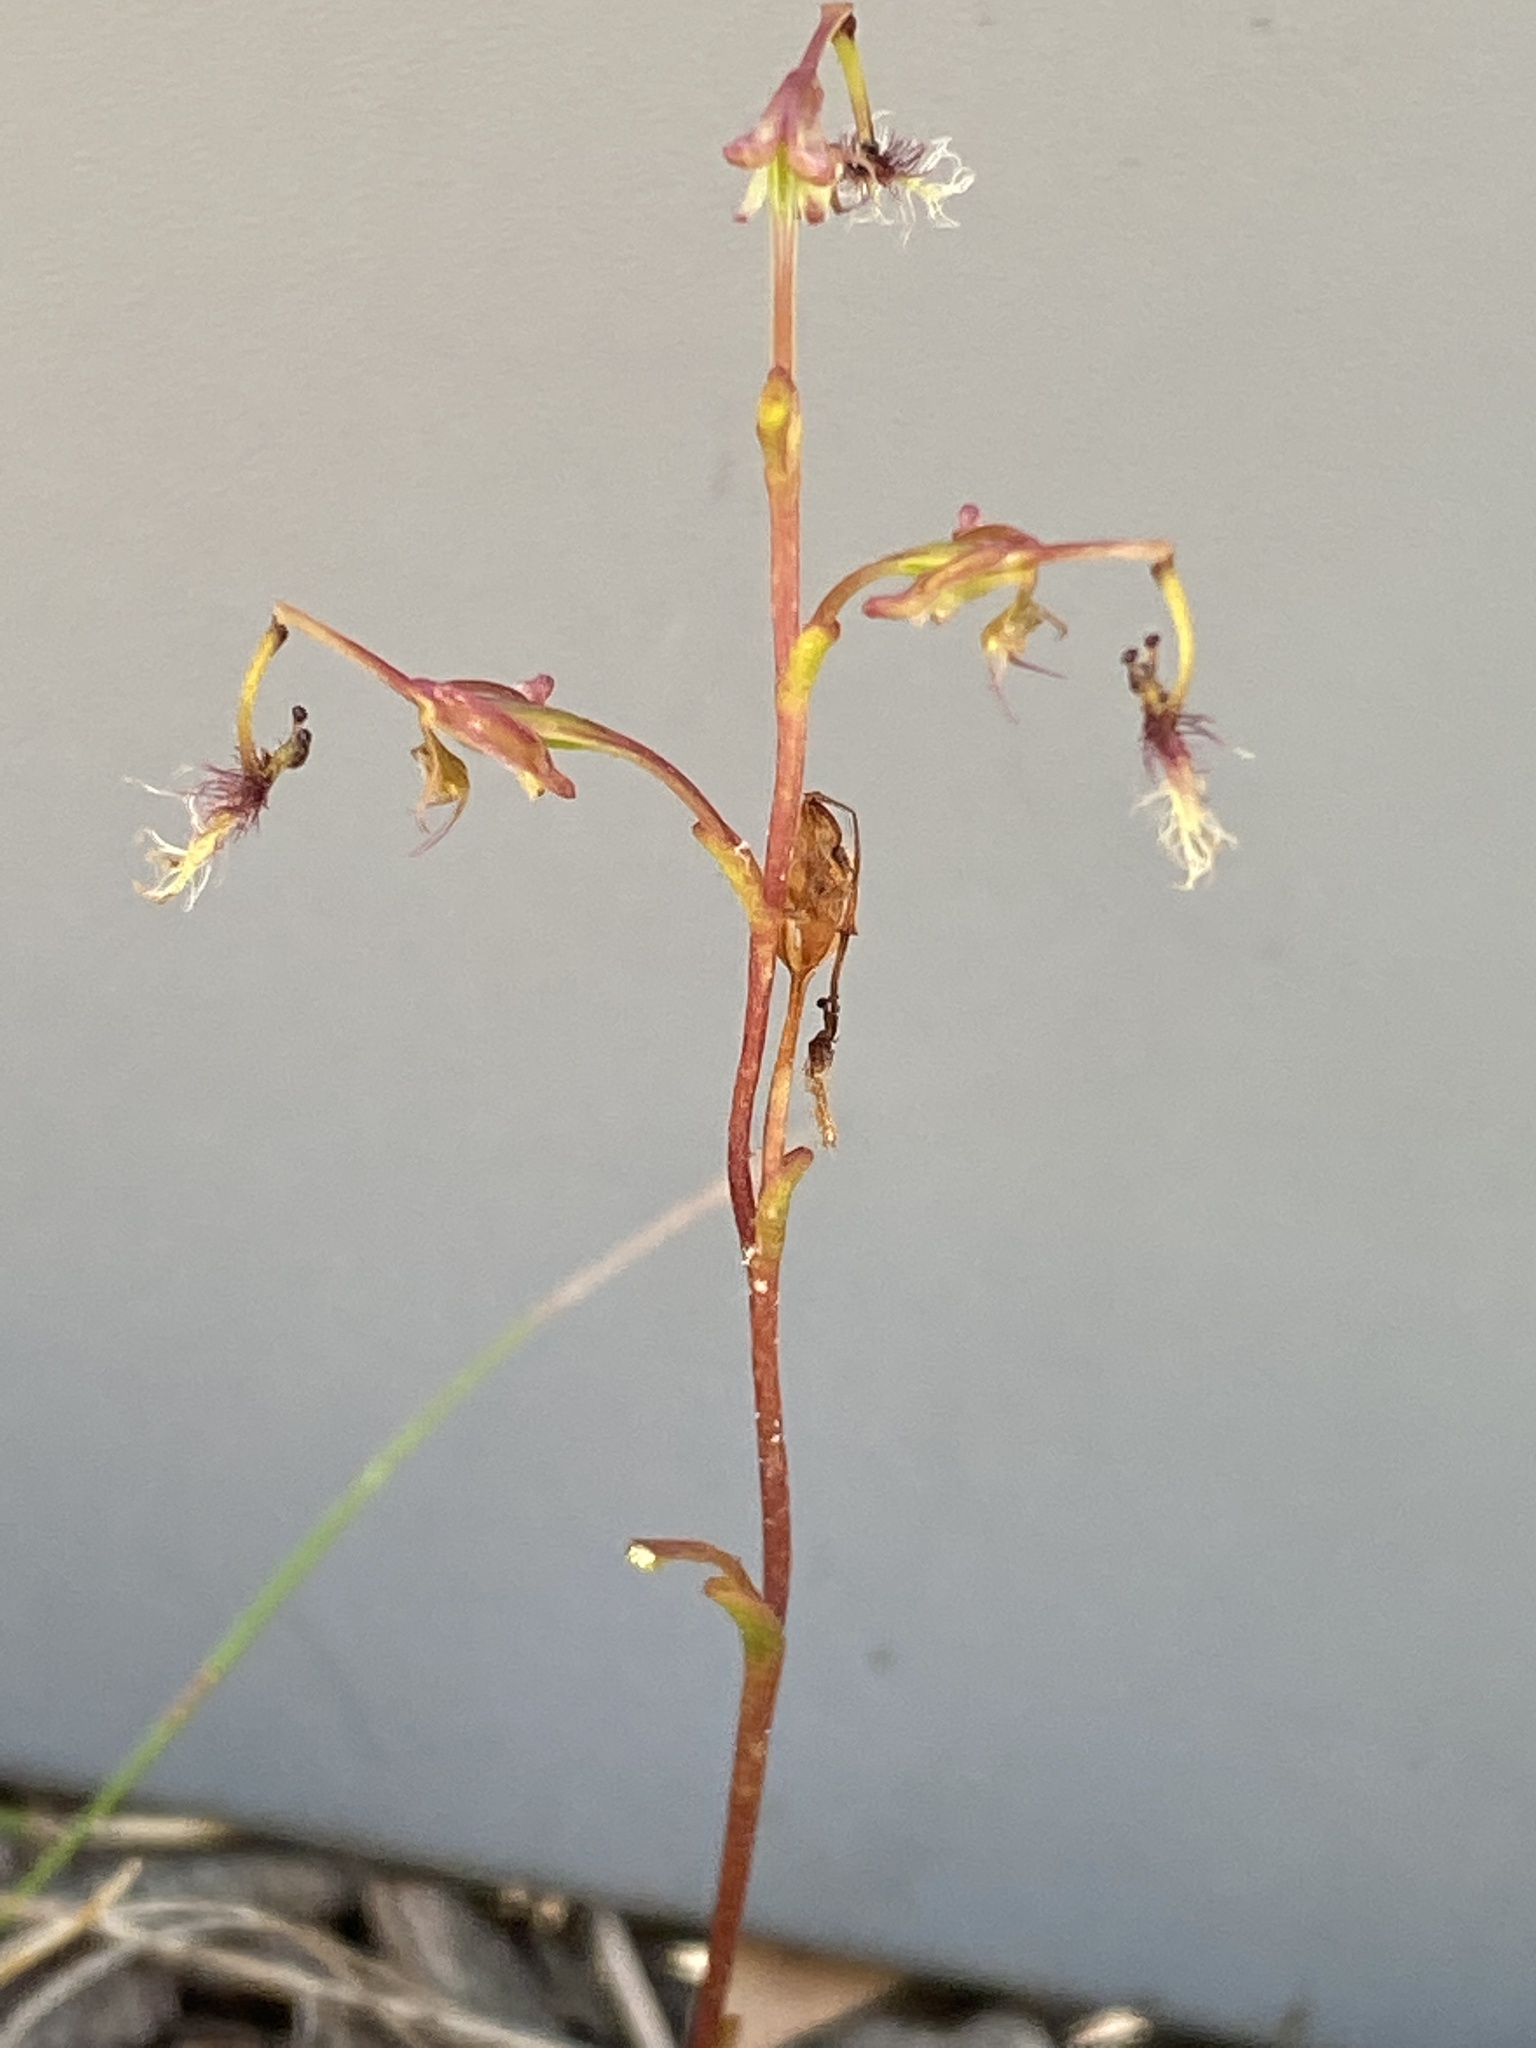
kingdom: Plantae
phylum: Tracheophyta
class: Liliopsida
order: Asparagales
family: Orchidaceae
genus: Arthrochilus
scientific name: Arthrochilus huntianus
